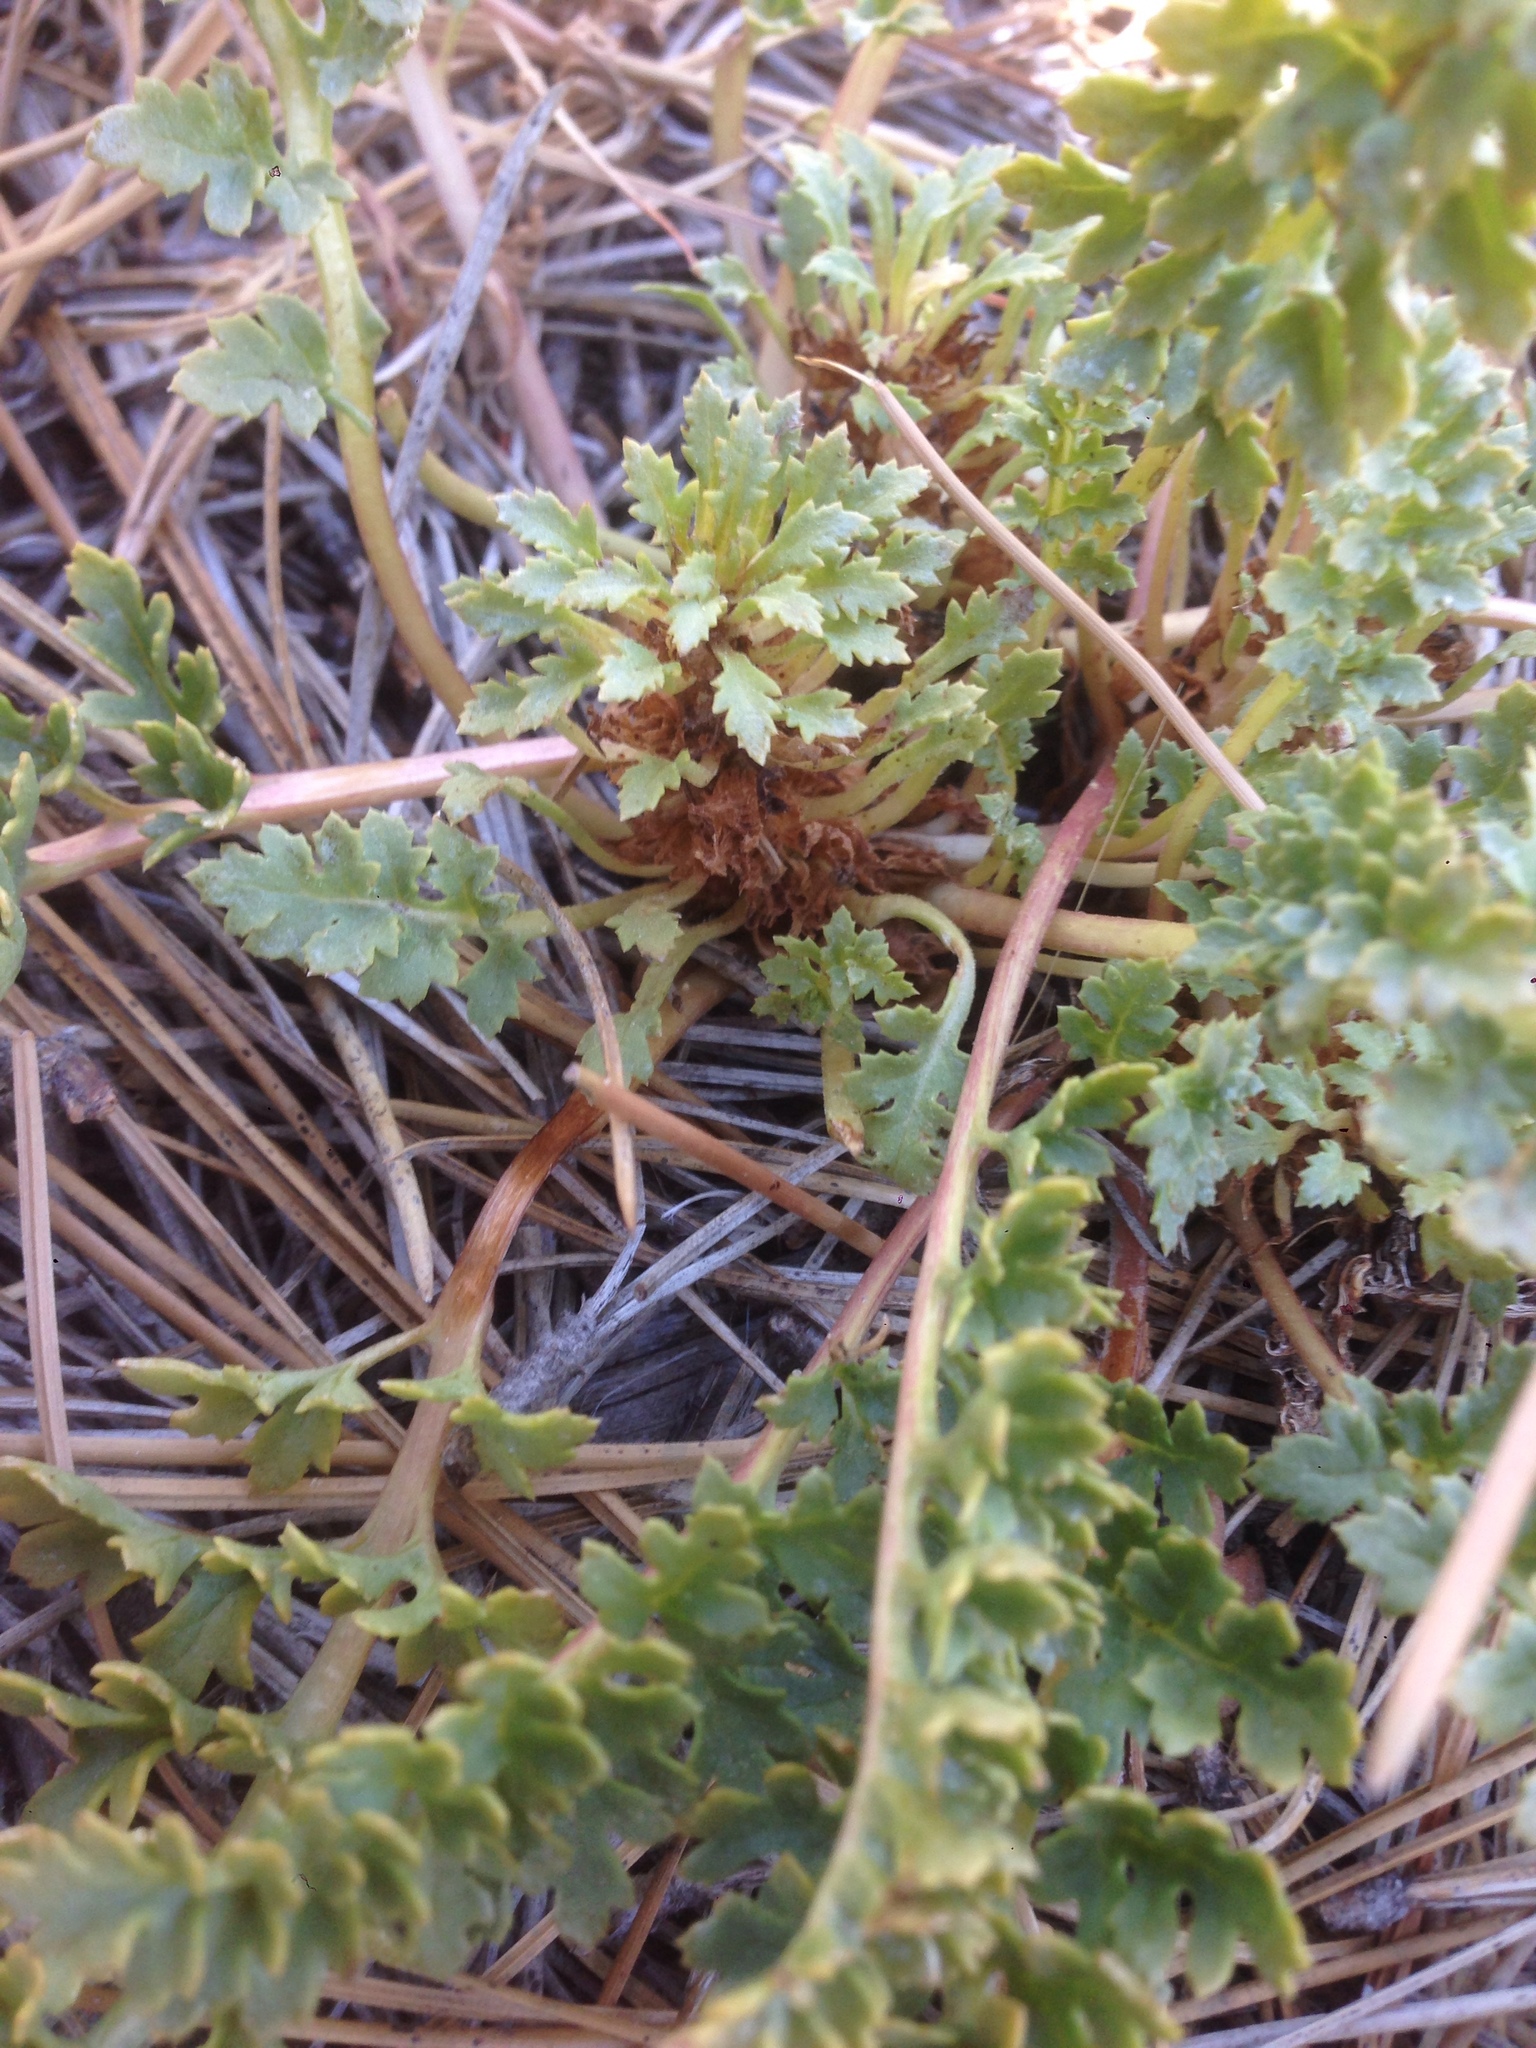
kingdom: Plantae
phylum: Tracheophyta
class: Magnoliopsida
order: Lamiales
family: Orobanchaceae
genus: Pedicularis
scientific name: Pedicularis semibarbata
